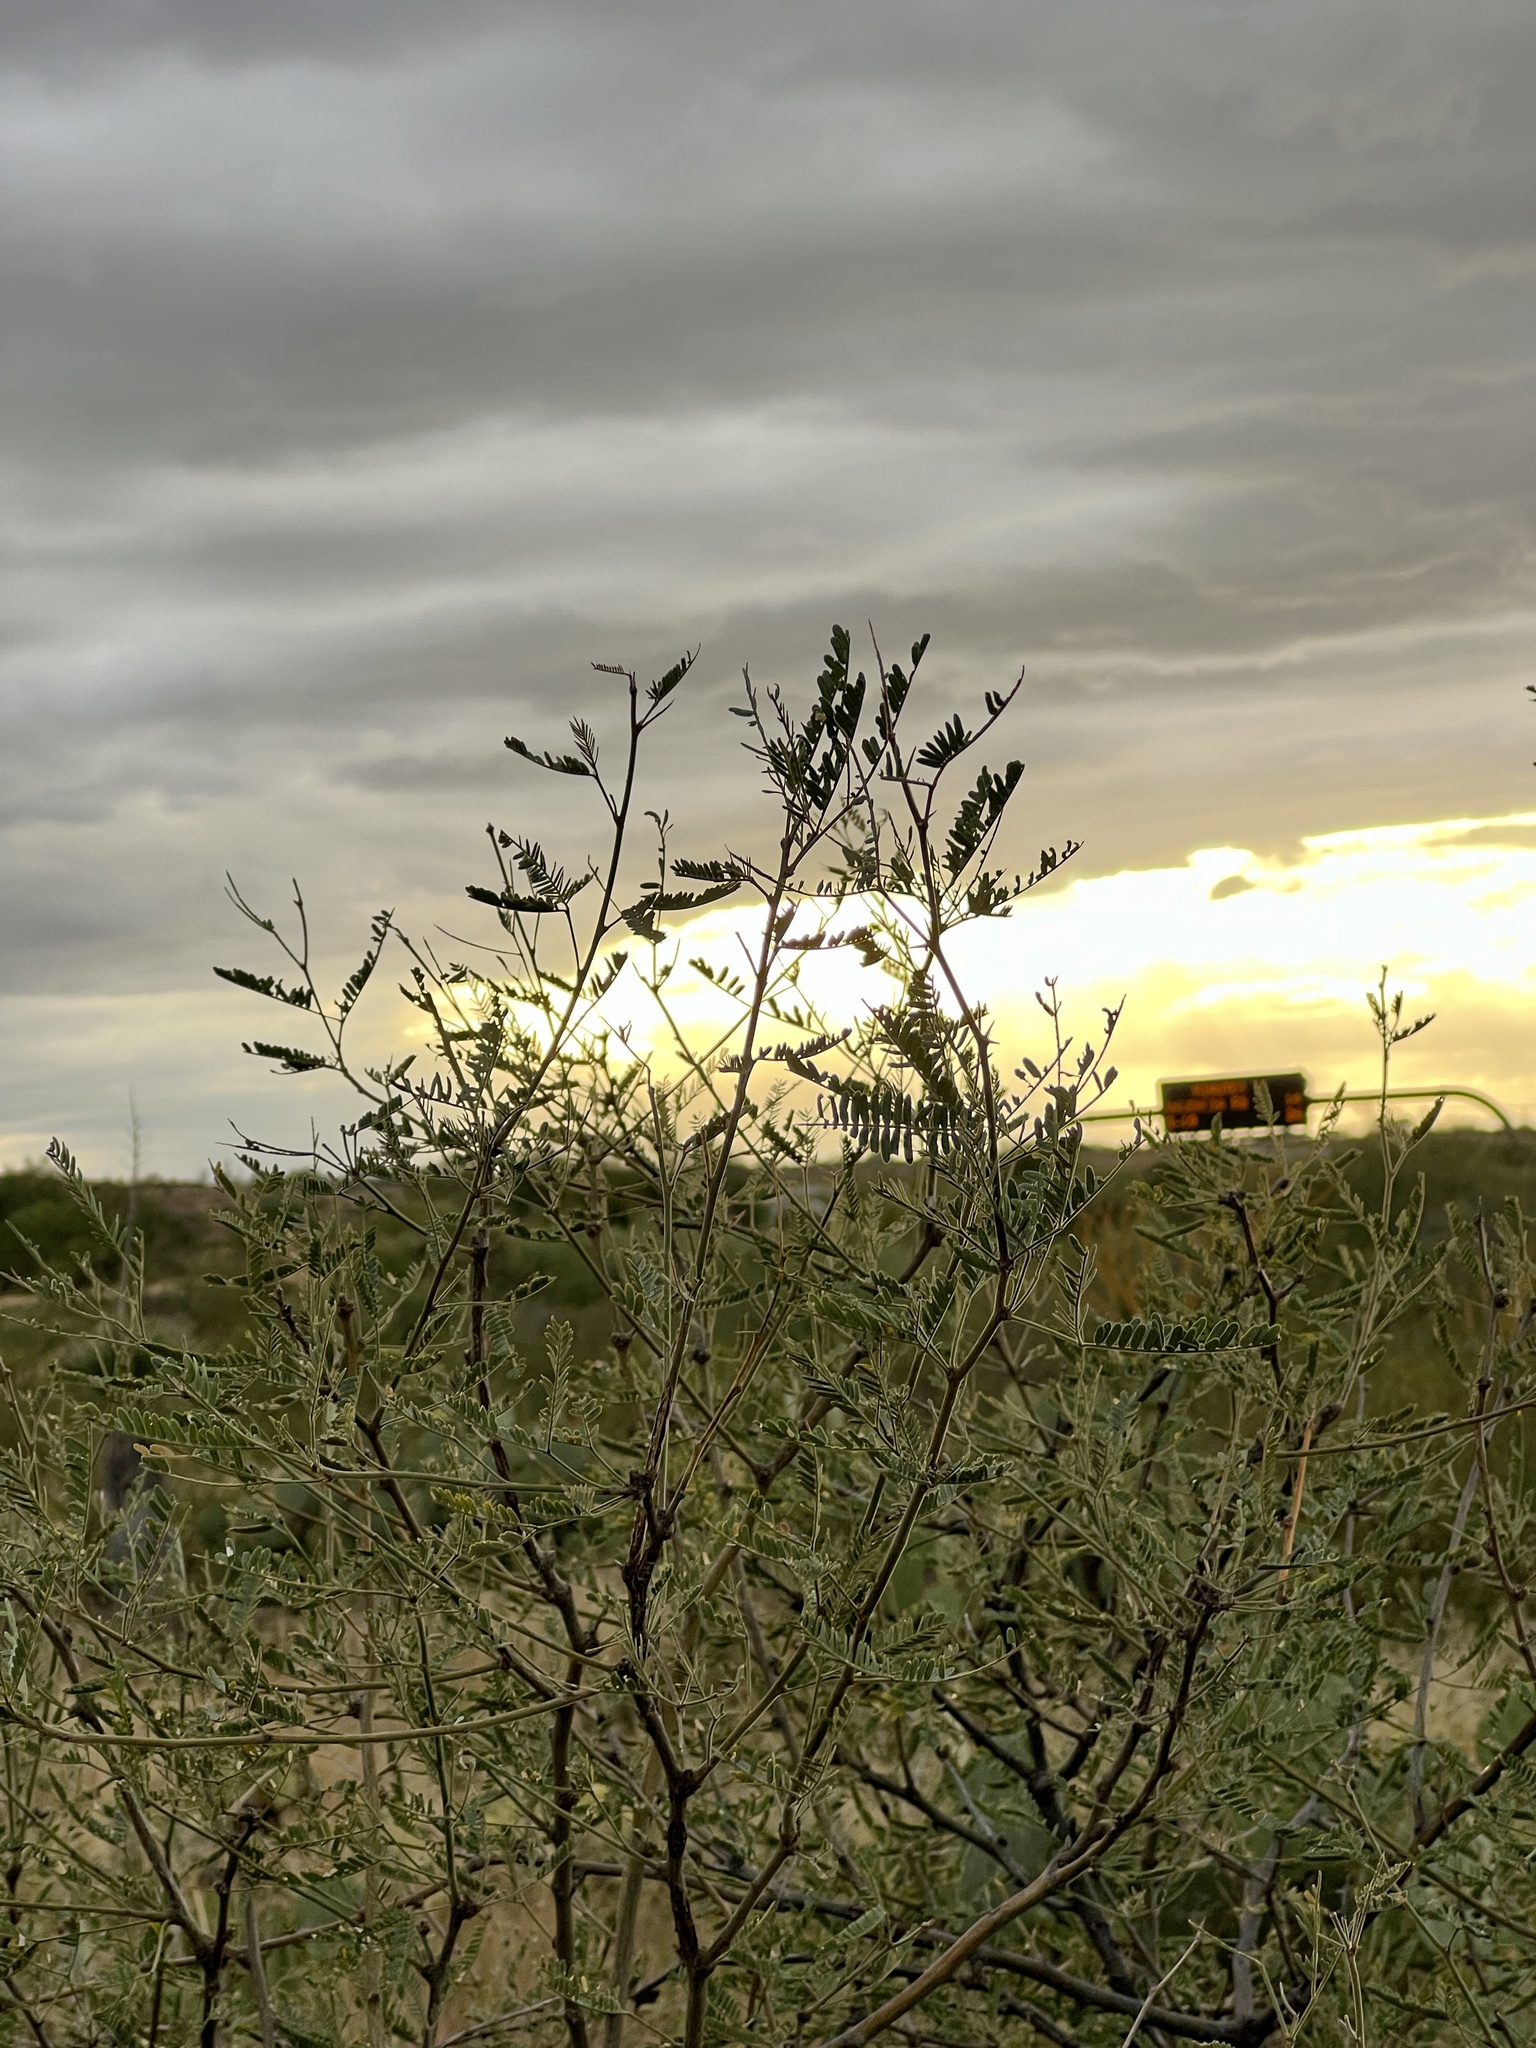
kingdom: Plantae
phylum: Tracheophyta
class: Magnoliopsida
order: Fabales
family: Fabaceae
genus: Prosopis
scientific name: Prosopis velutina
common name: Velvet mesquite
